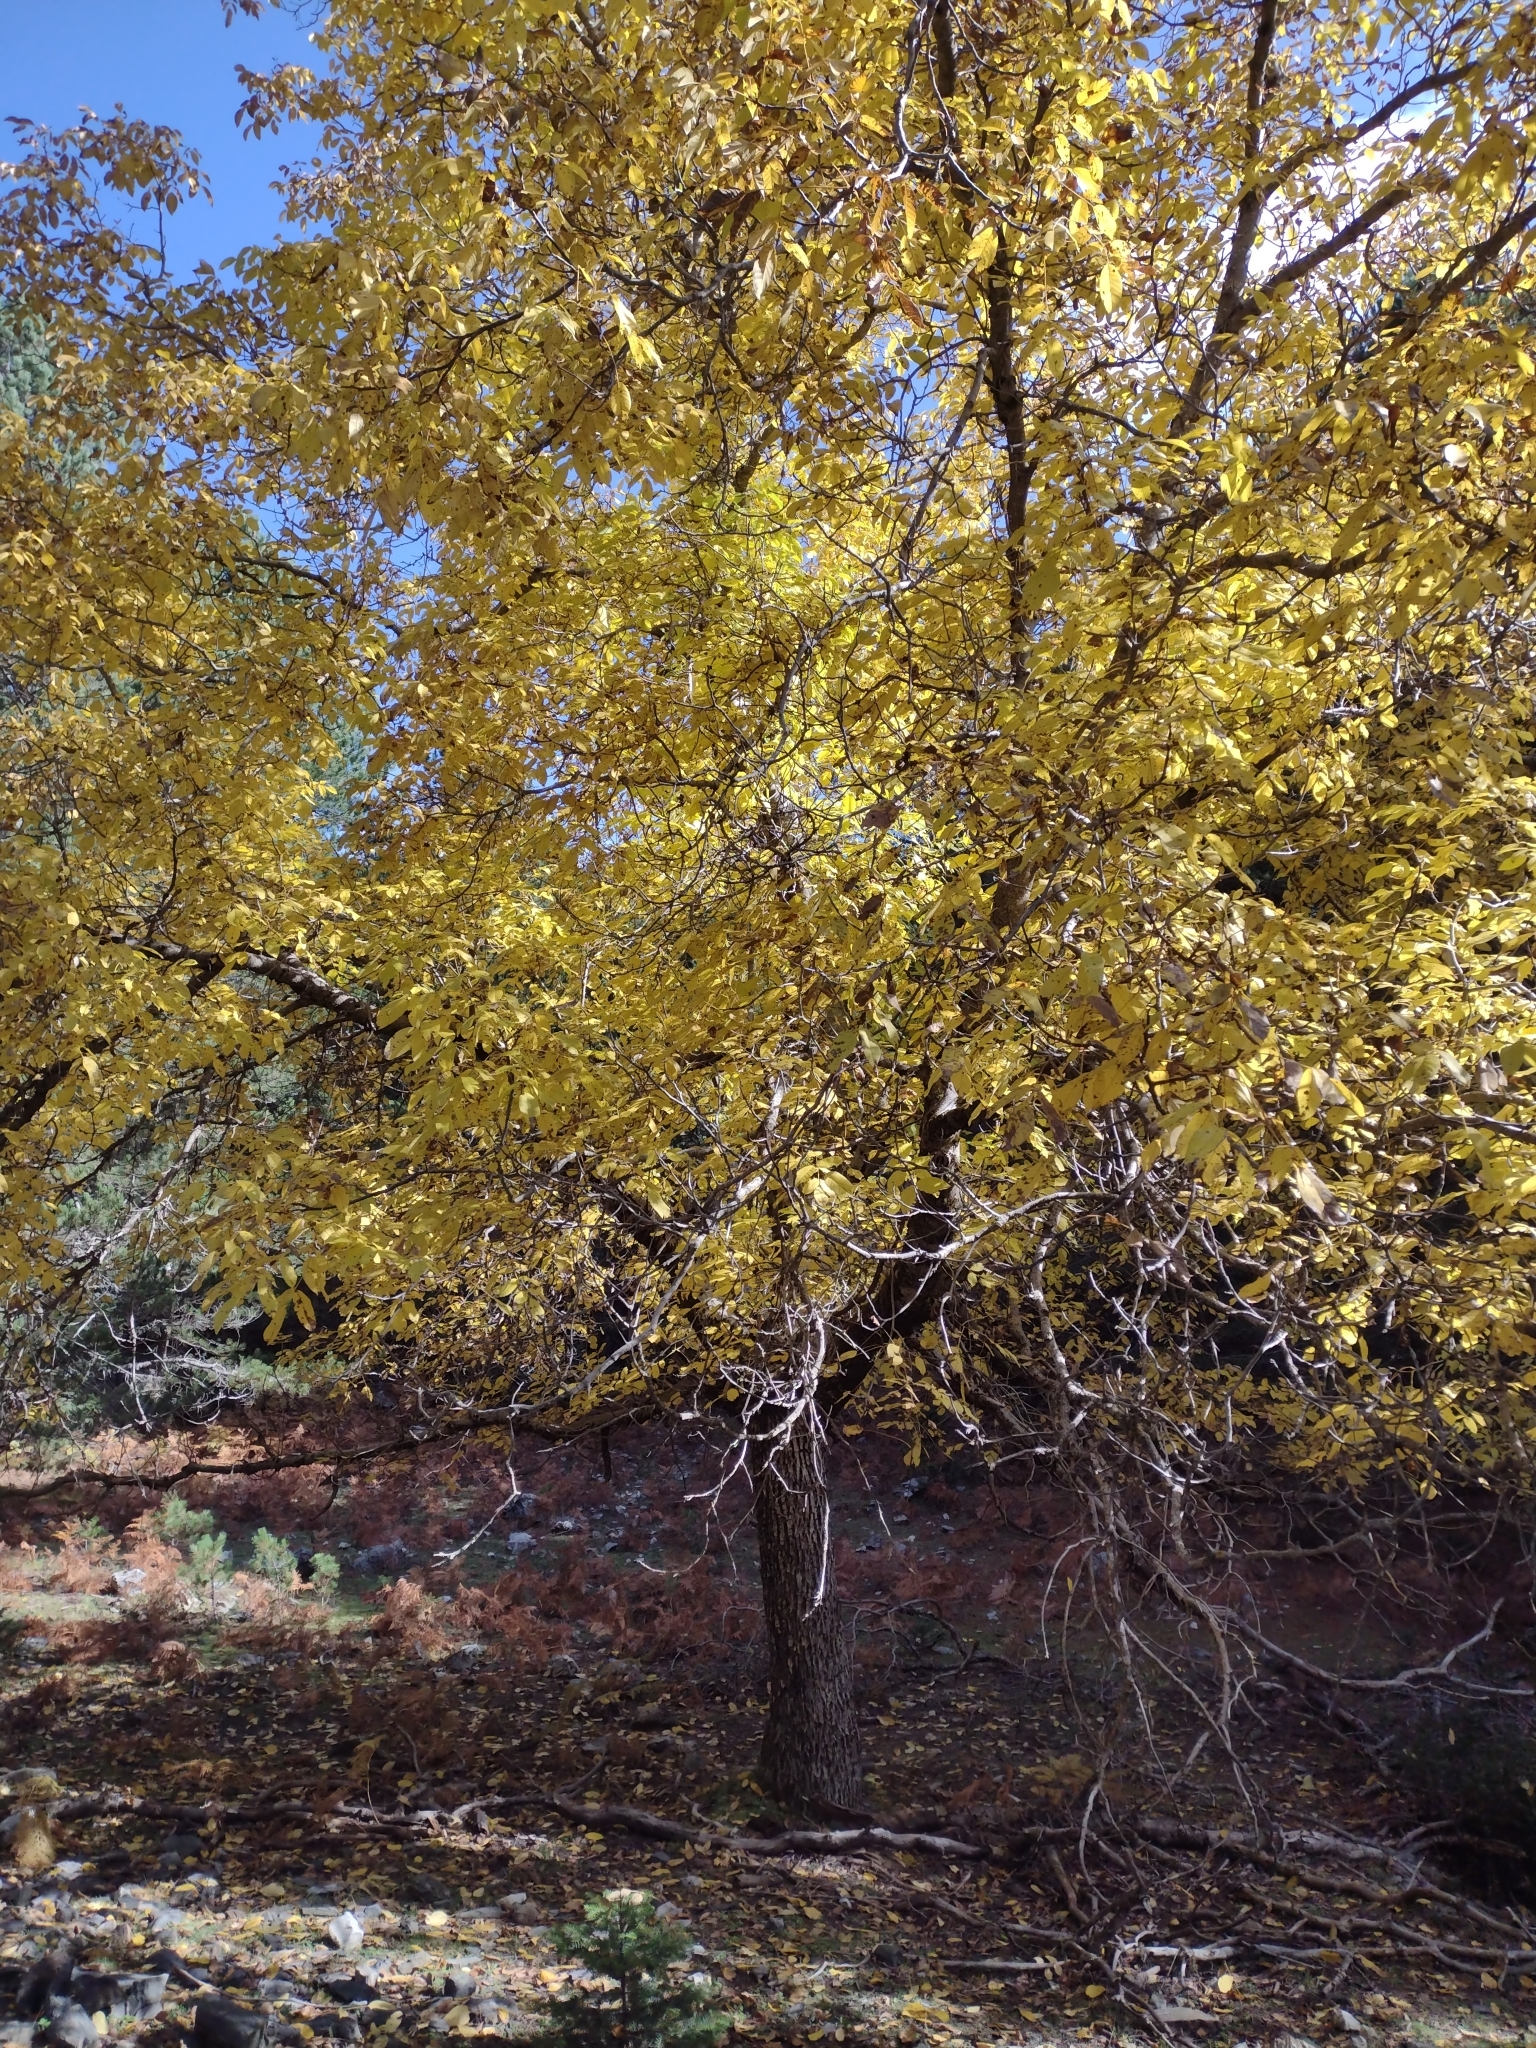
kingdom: Plantae
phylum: Tracheophyta
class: Magnoliopsida
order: Fagales
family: Juglandaceae
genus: Juglans
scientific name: Juglans regia
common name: Walnut
